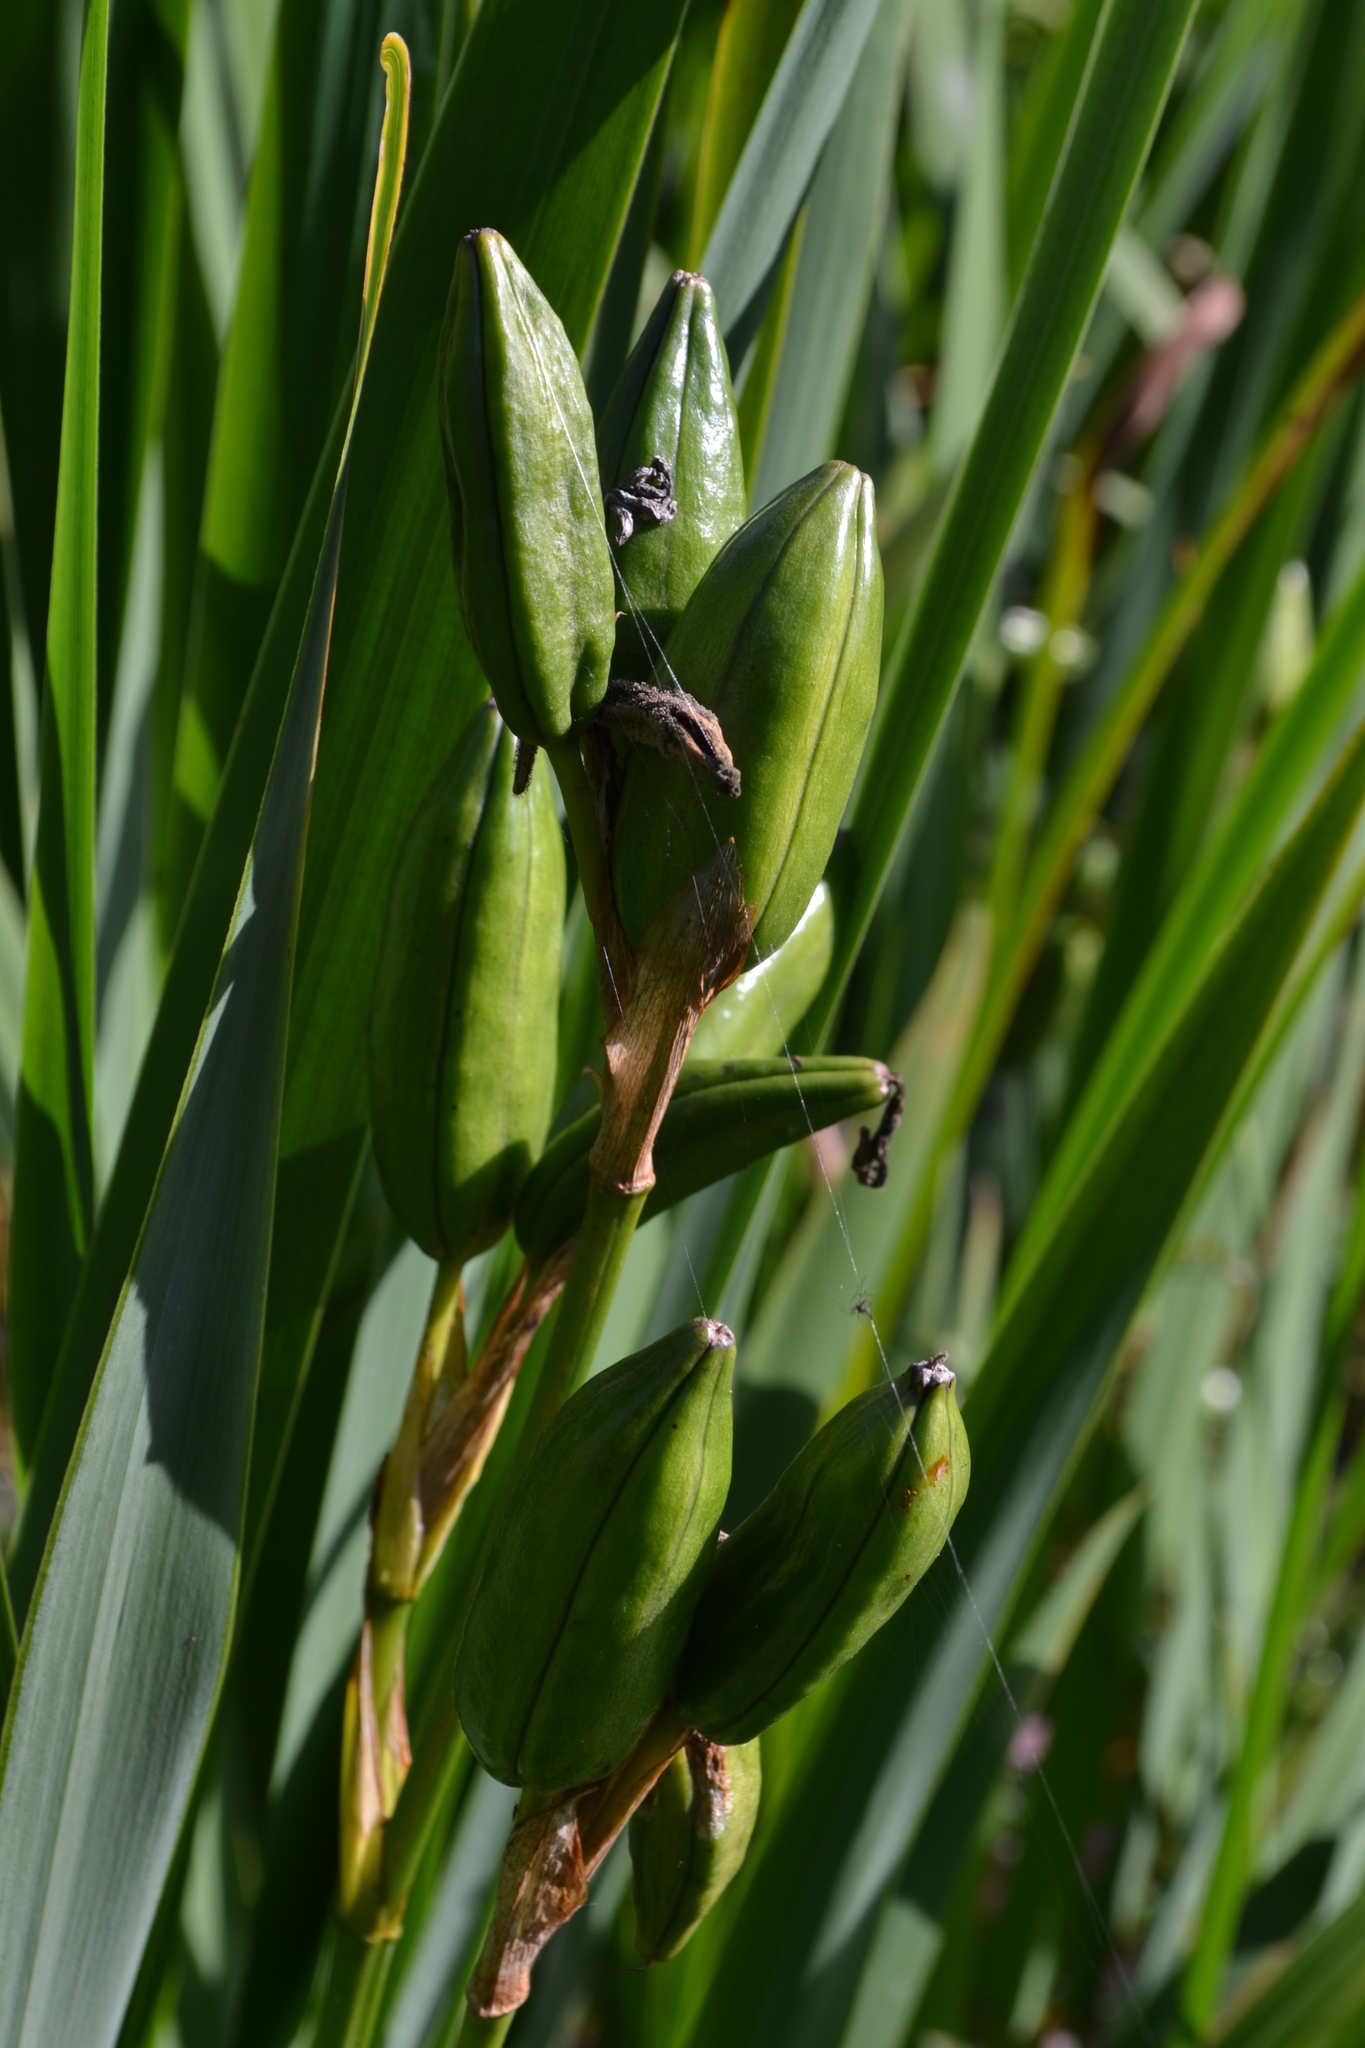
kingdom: Plantae
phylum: Tracheophyta
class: Liliopsida
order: Asparagales
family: Iridaceae
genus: Iris
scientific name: Iris pseudacorus
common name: Yellow flag
